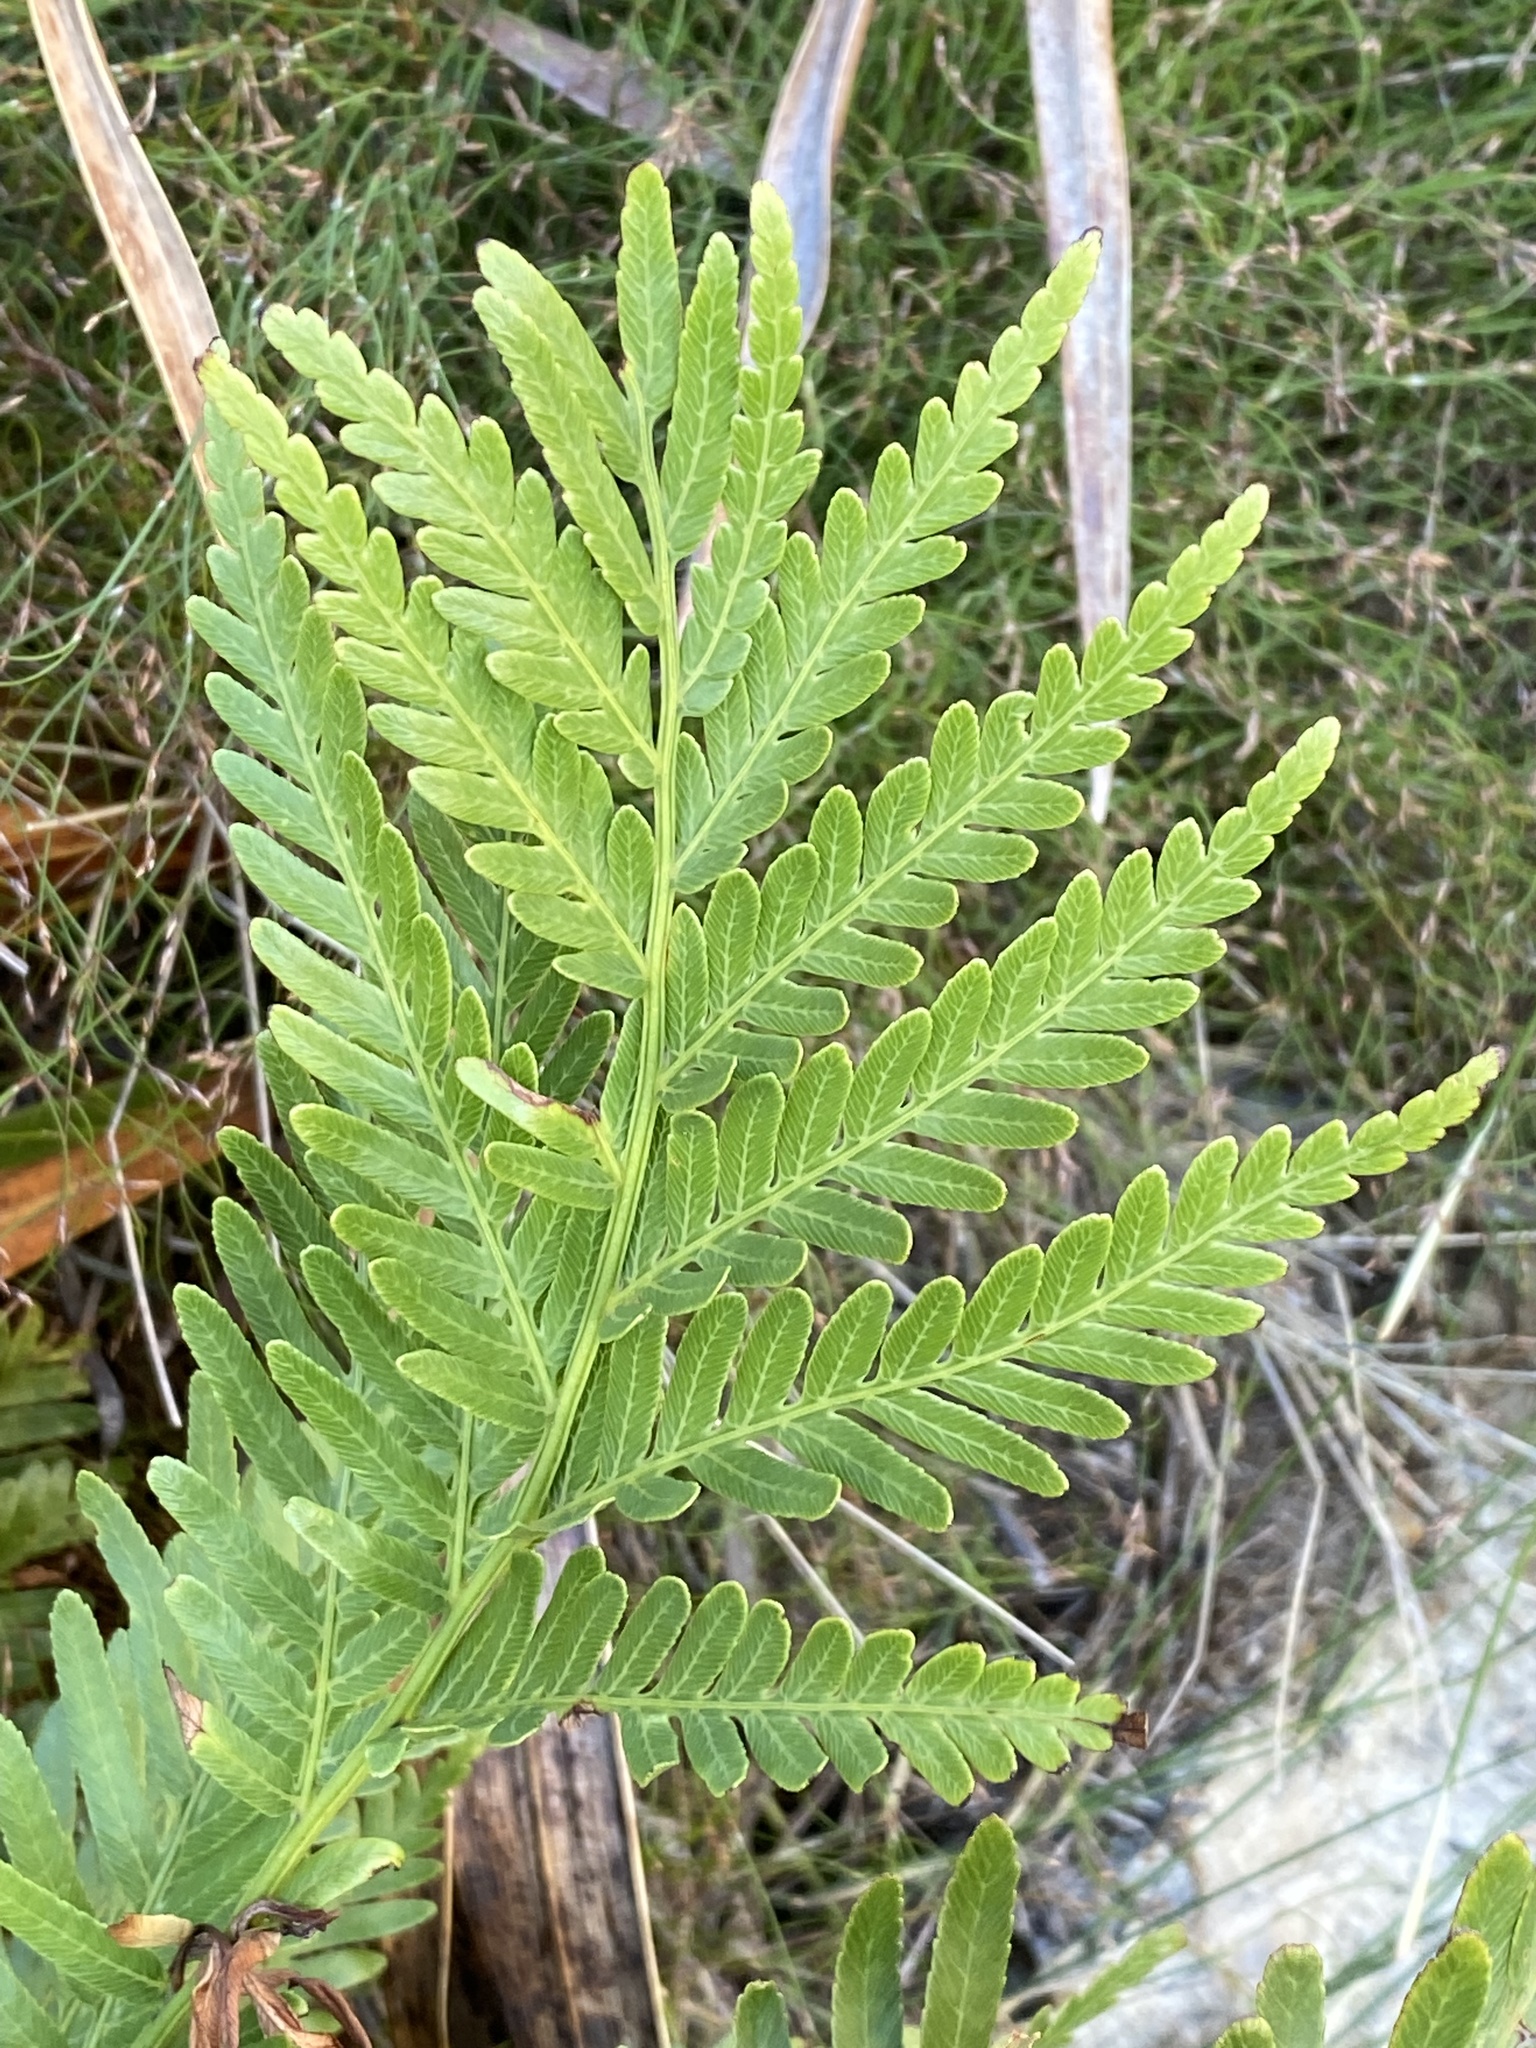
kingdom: Plantae
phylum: Tracheophyta
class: Polypodiopsida
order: Osmundales
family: Osmundaceae
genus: Todea
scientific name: Todea barbara
